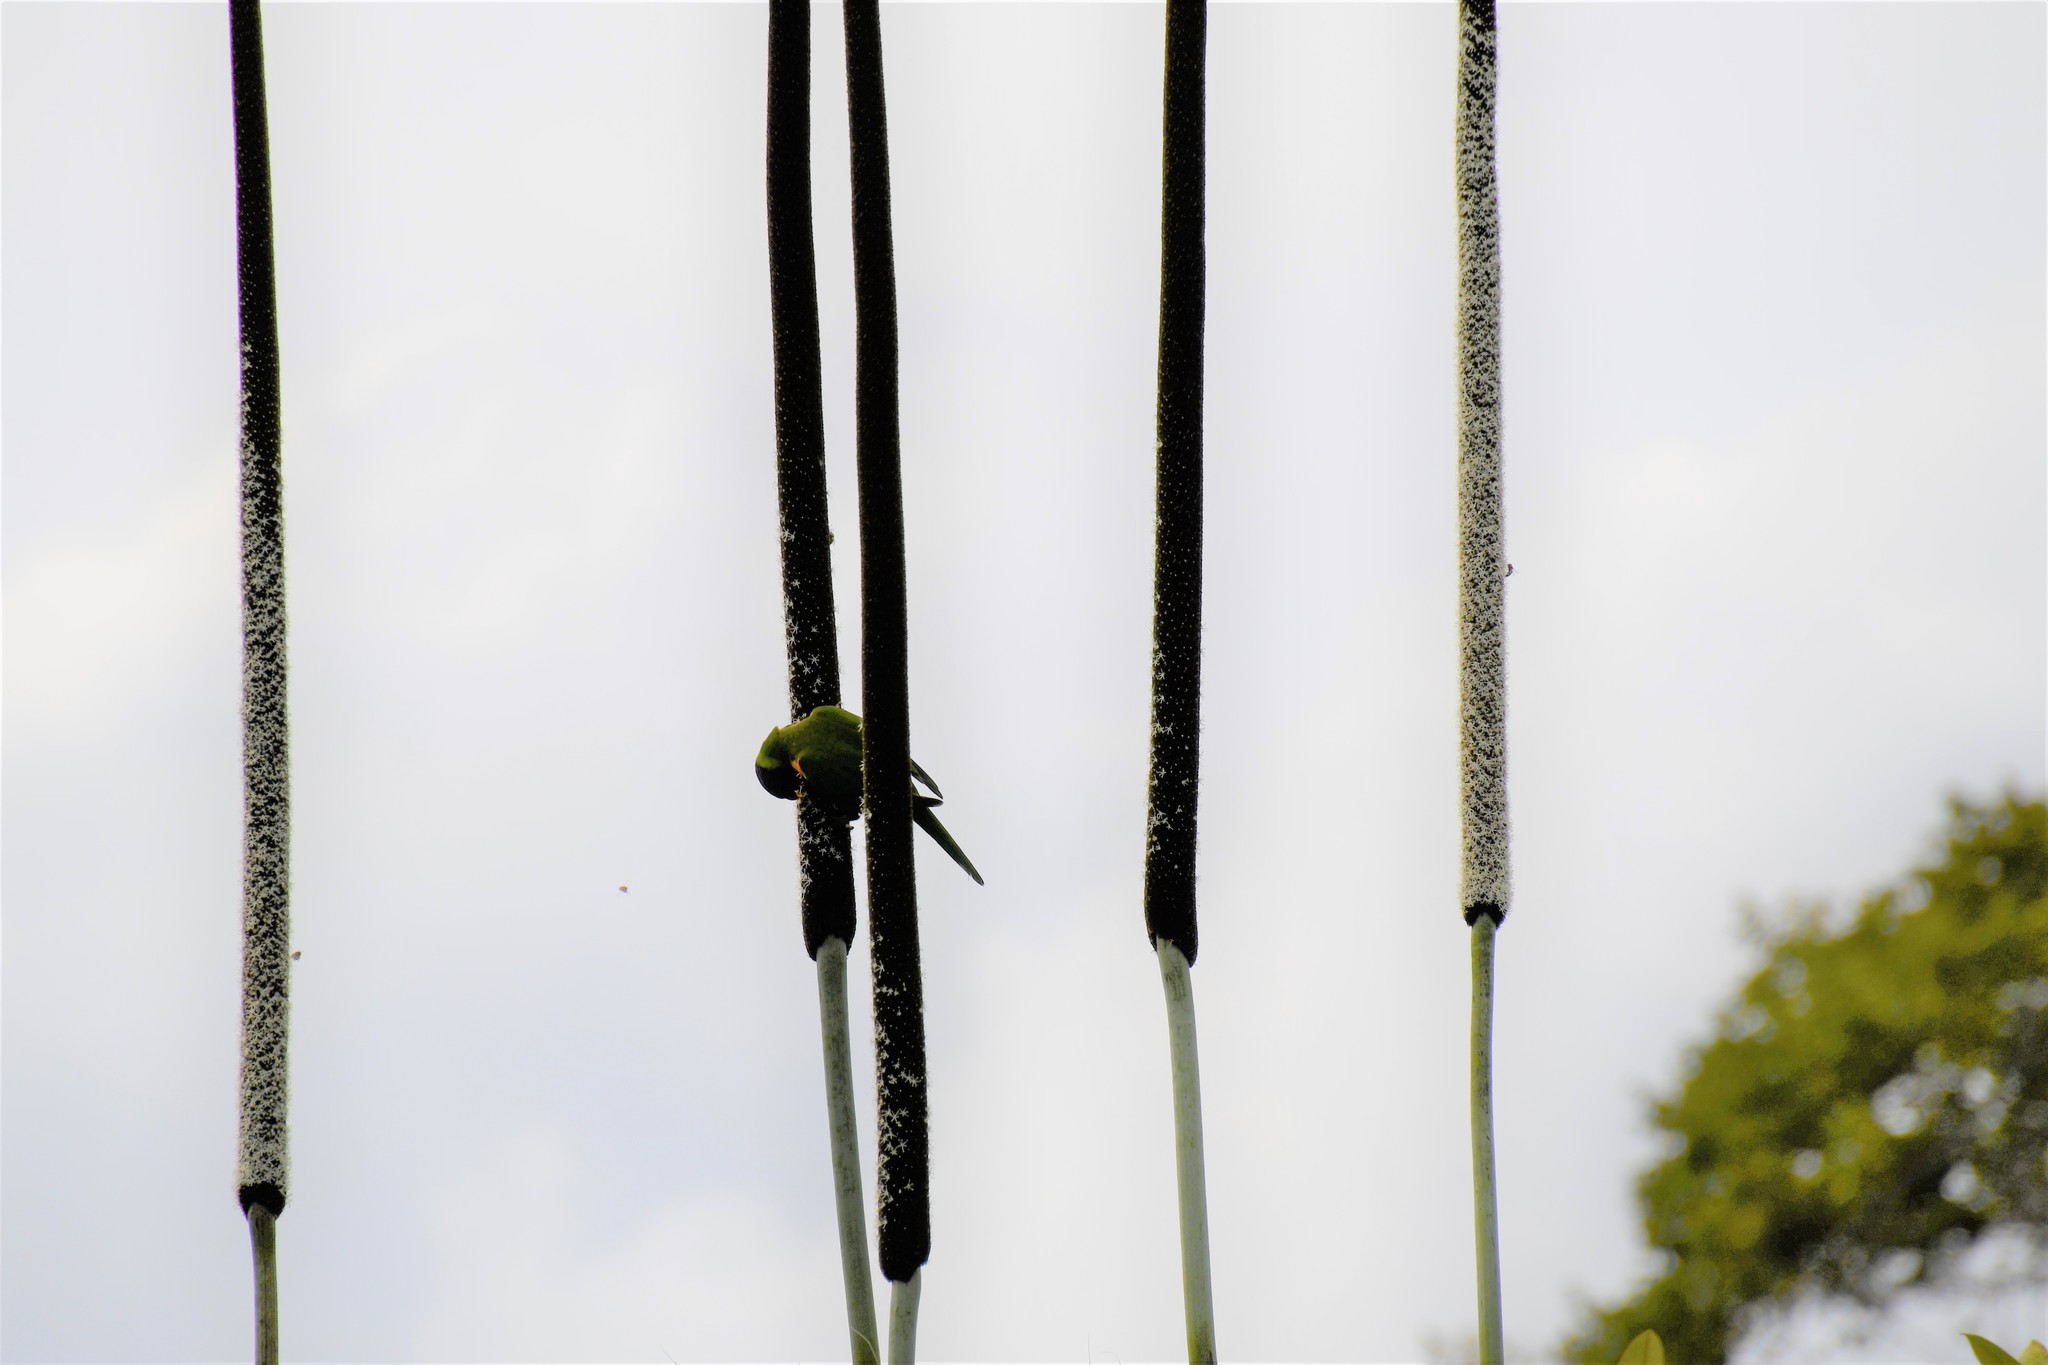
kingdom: Animalia
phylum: Chordata
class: Aves
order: Psittaciformes
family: Psittacidae
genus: Trichoglossus
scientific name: Trichoglossus haematodus
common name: Coconut lorikeet
